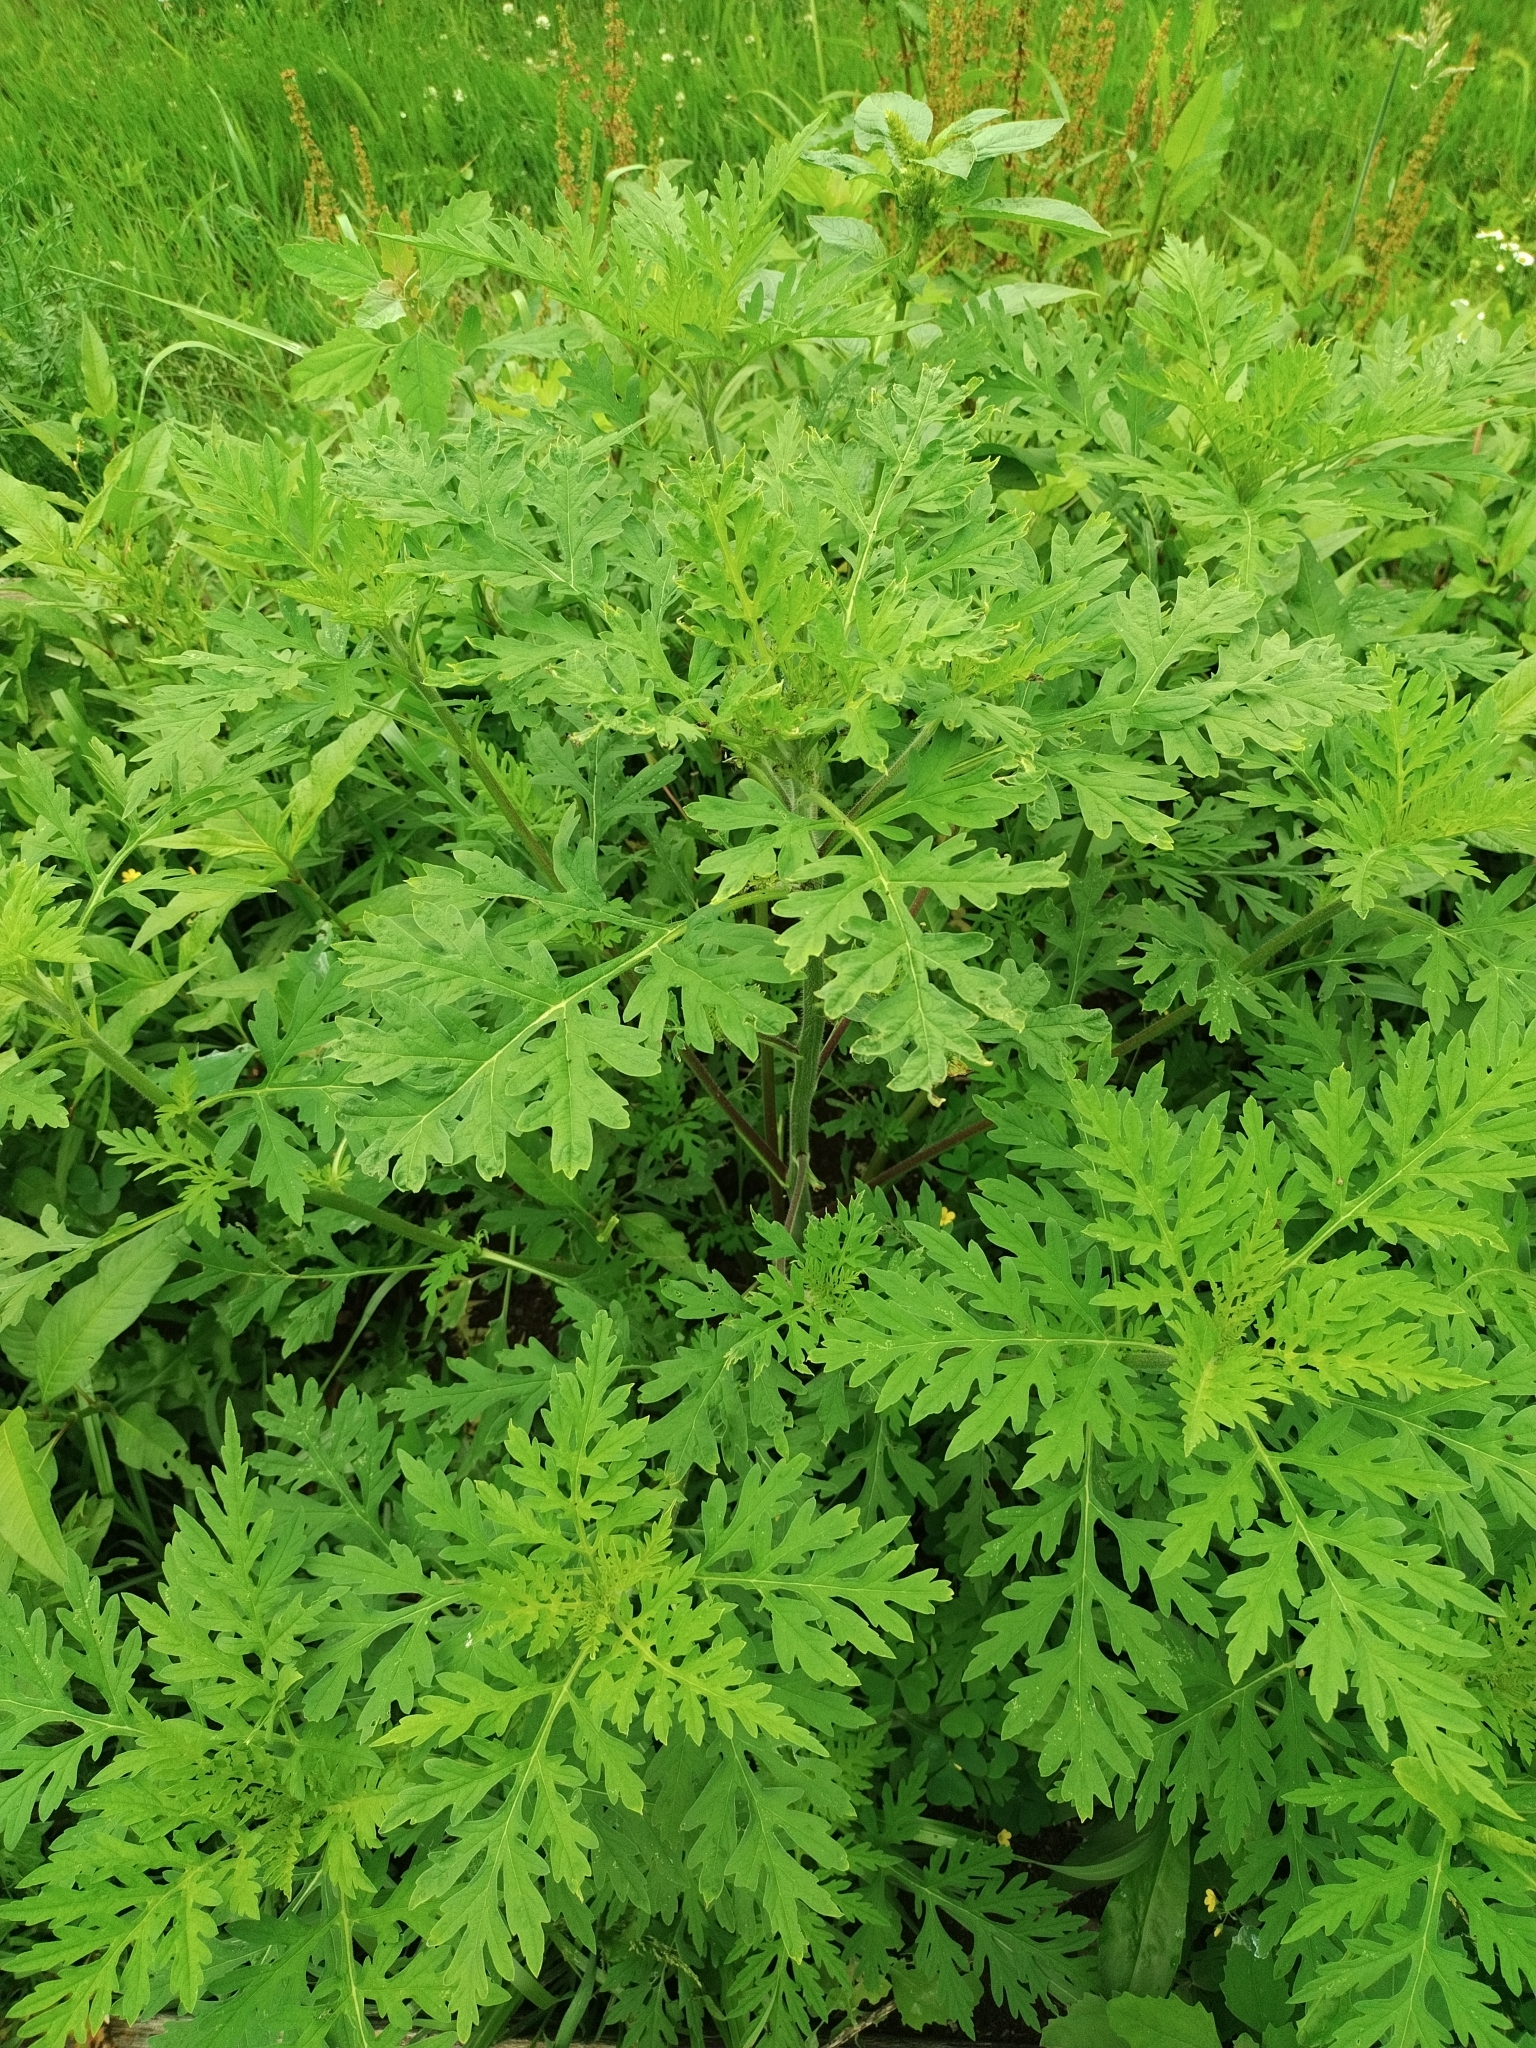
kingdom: Plantae
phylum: Tracheophyta
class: Magnoliopsida
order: Asterales
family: Asteraceae
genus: Ambrosia
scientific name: Ambrosia artemisiifolia
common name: Annual ragweed
